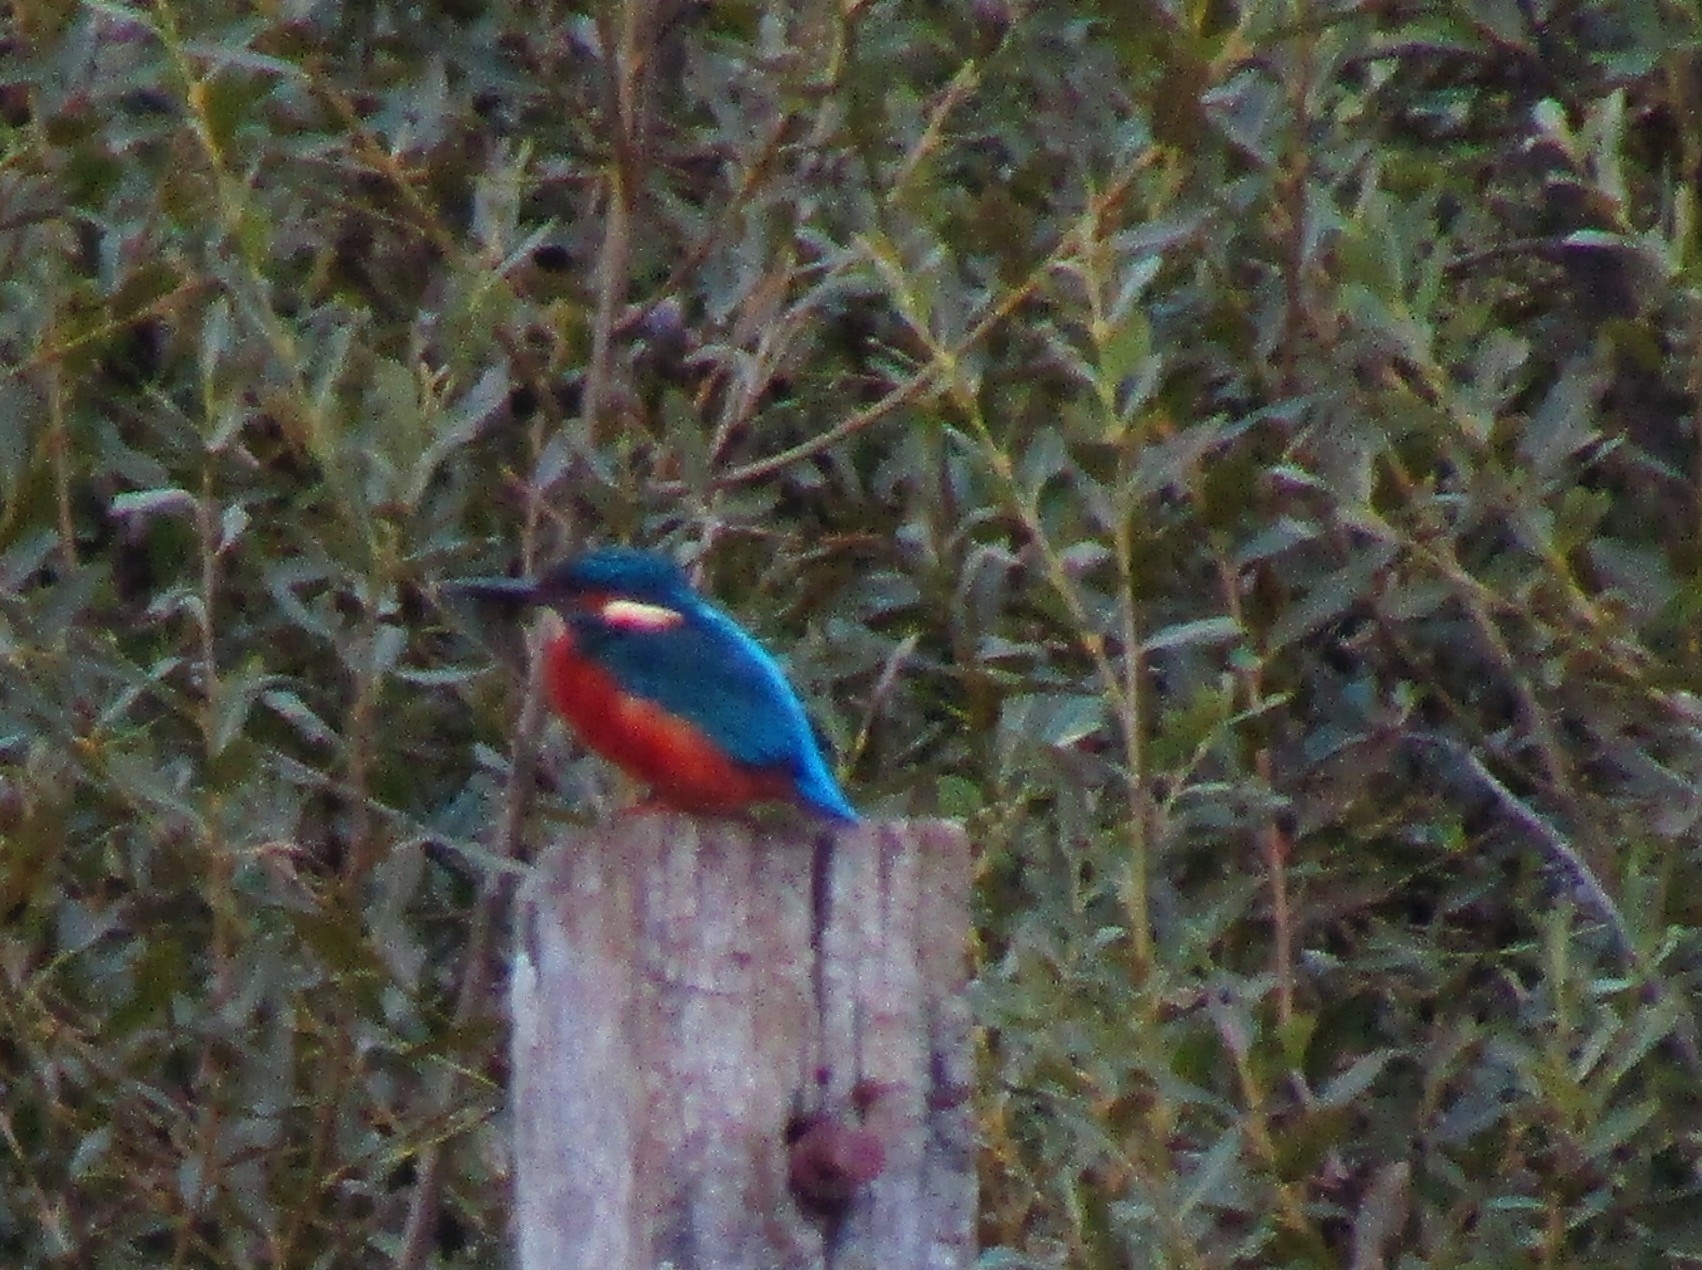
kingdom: Animalia
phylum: Chordata
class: Aves
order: Coraciiformes
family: Alcedinidae
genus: Alcedo
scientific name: Alcedo atthis
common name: Common kingfisher
